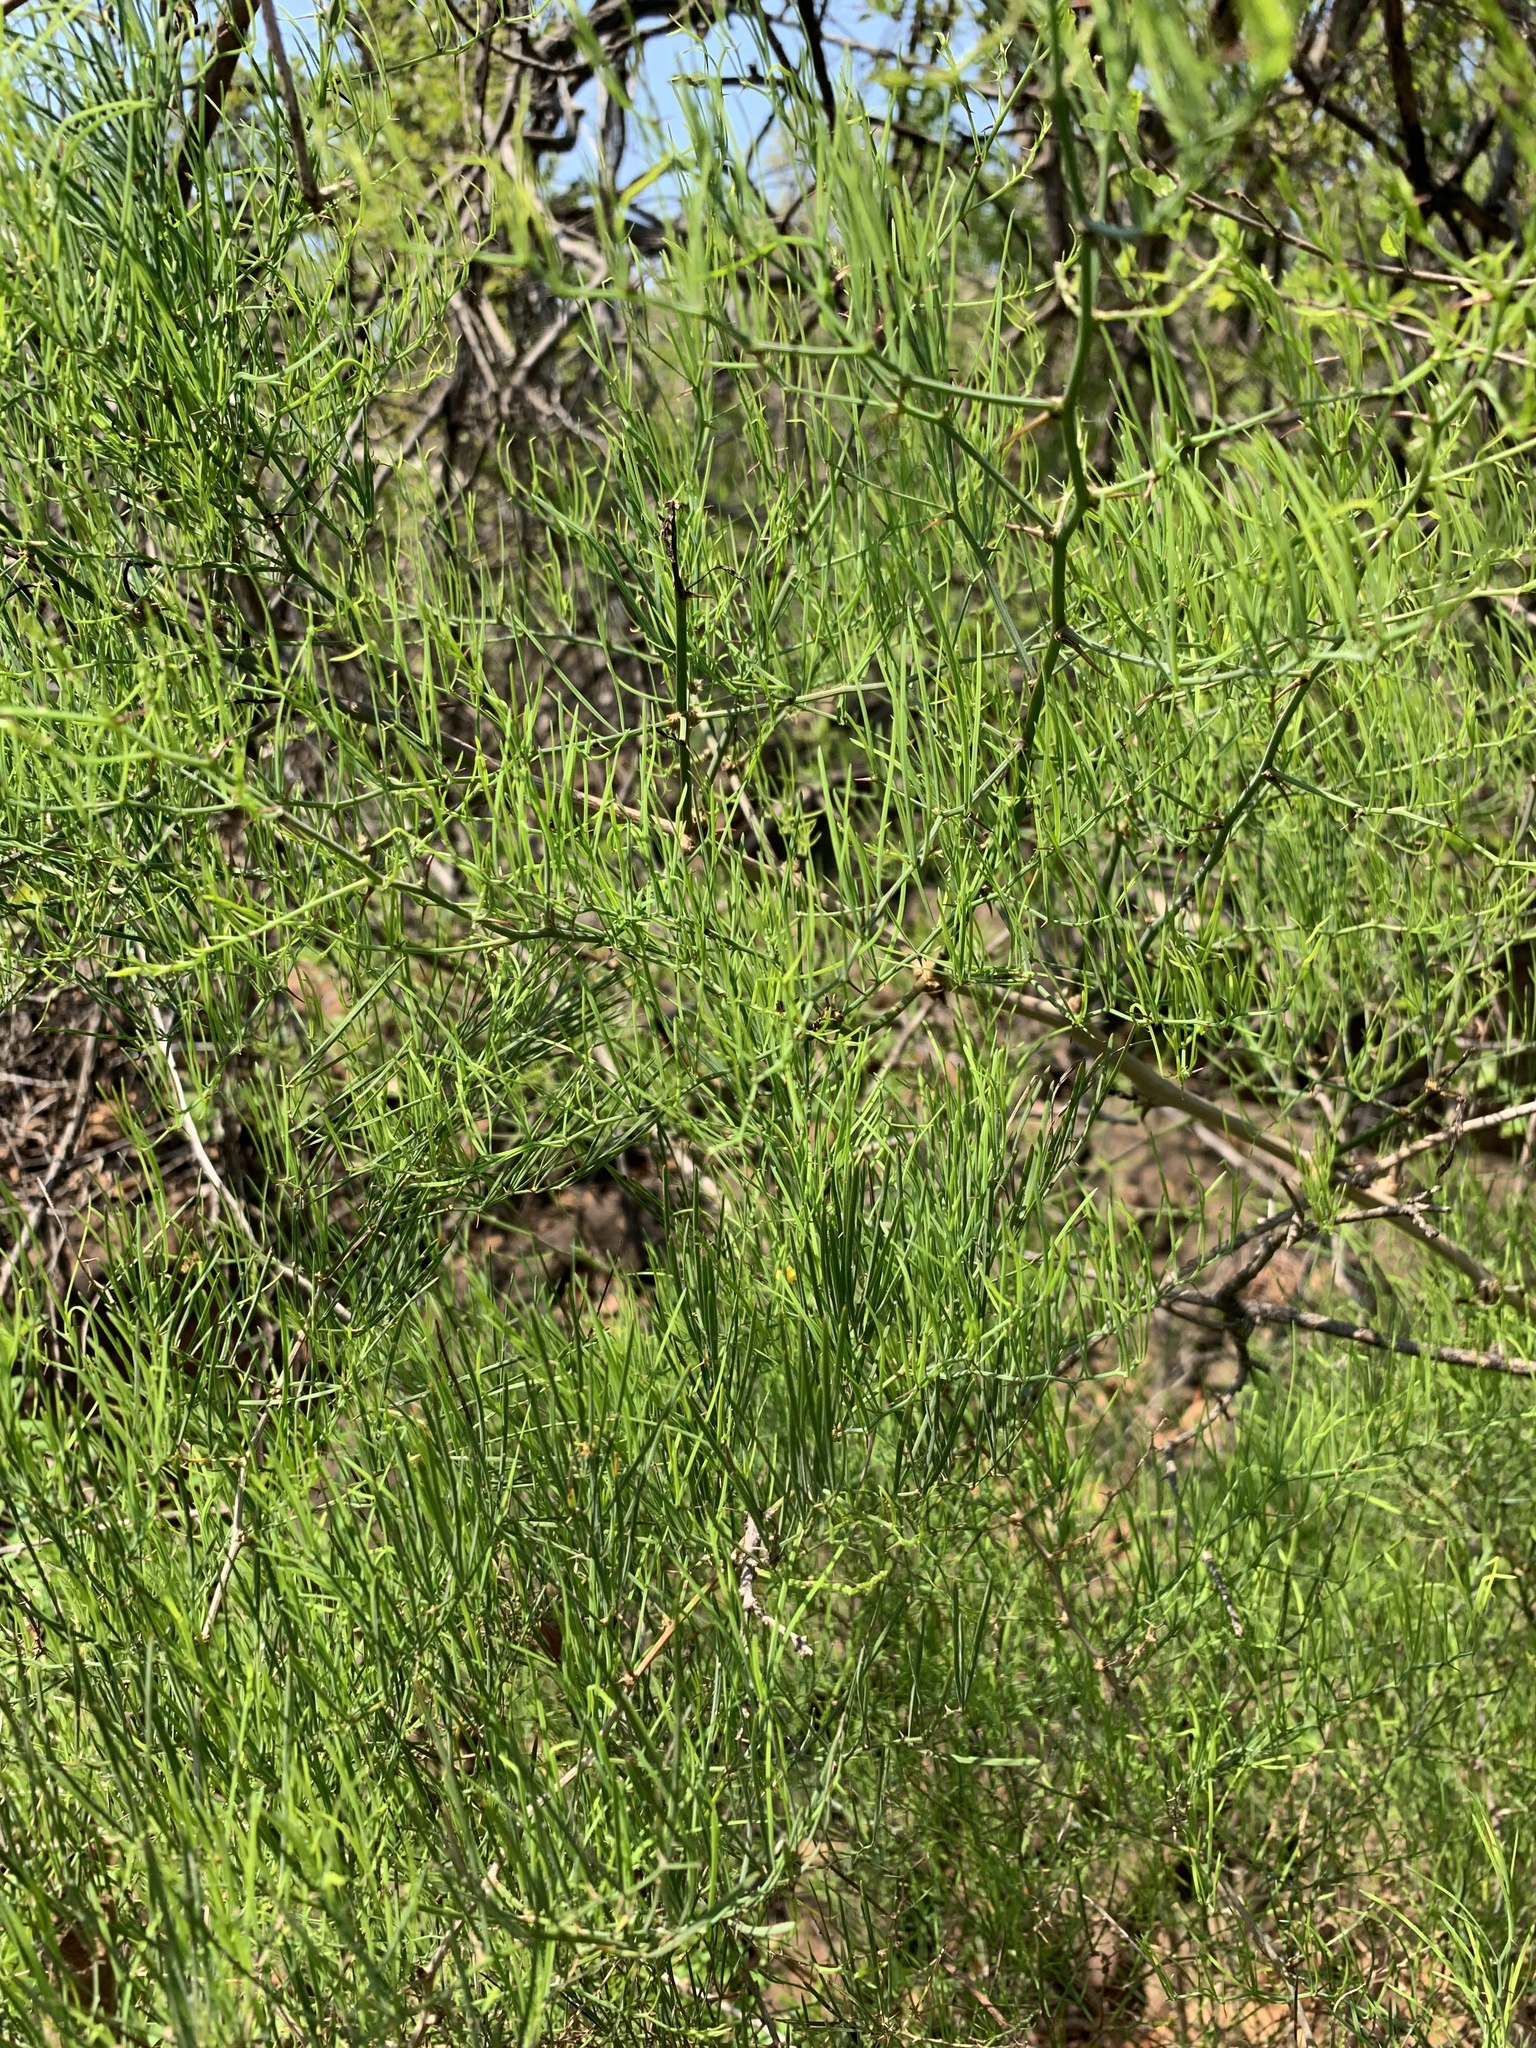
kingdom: Plantae
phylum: Tracheophyta
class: Liliopsida
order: Asparagales
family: Asparagaceae
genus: Asparagus
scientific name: Asparagus transvaalensis
